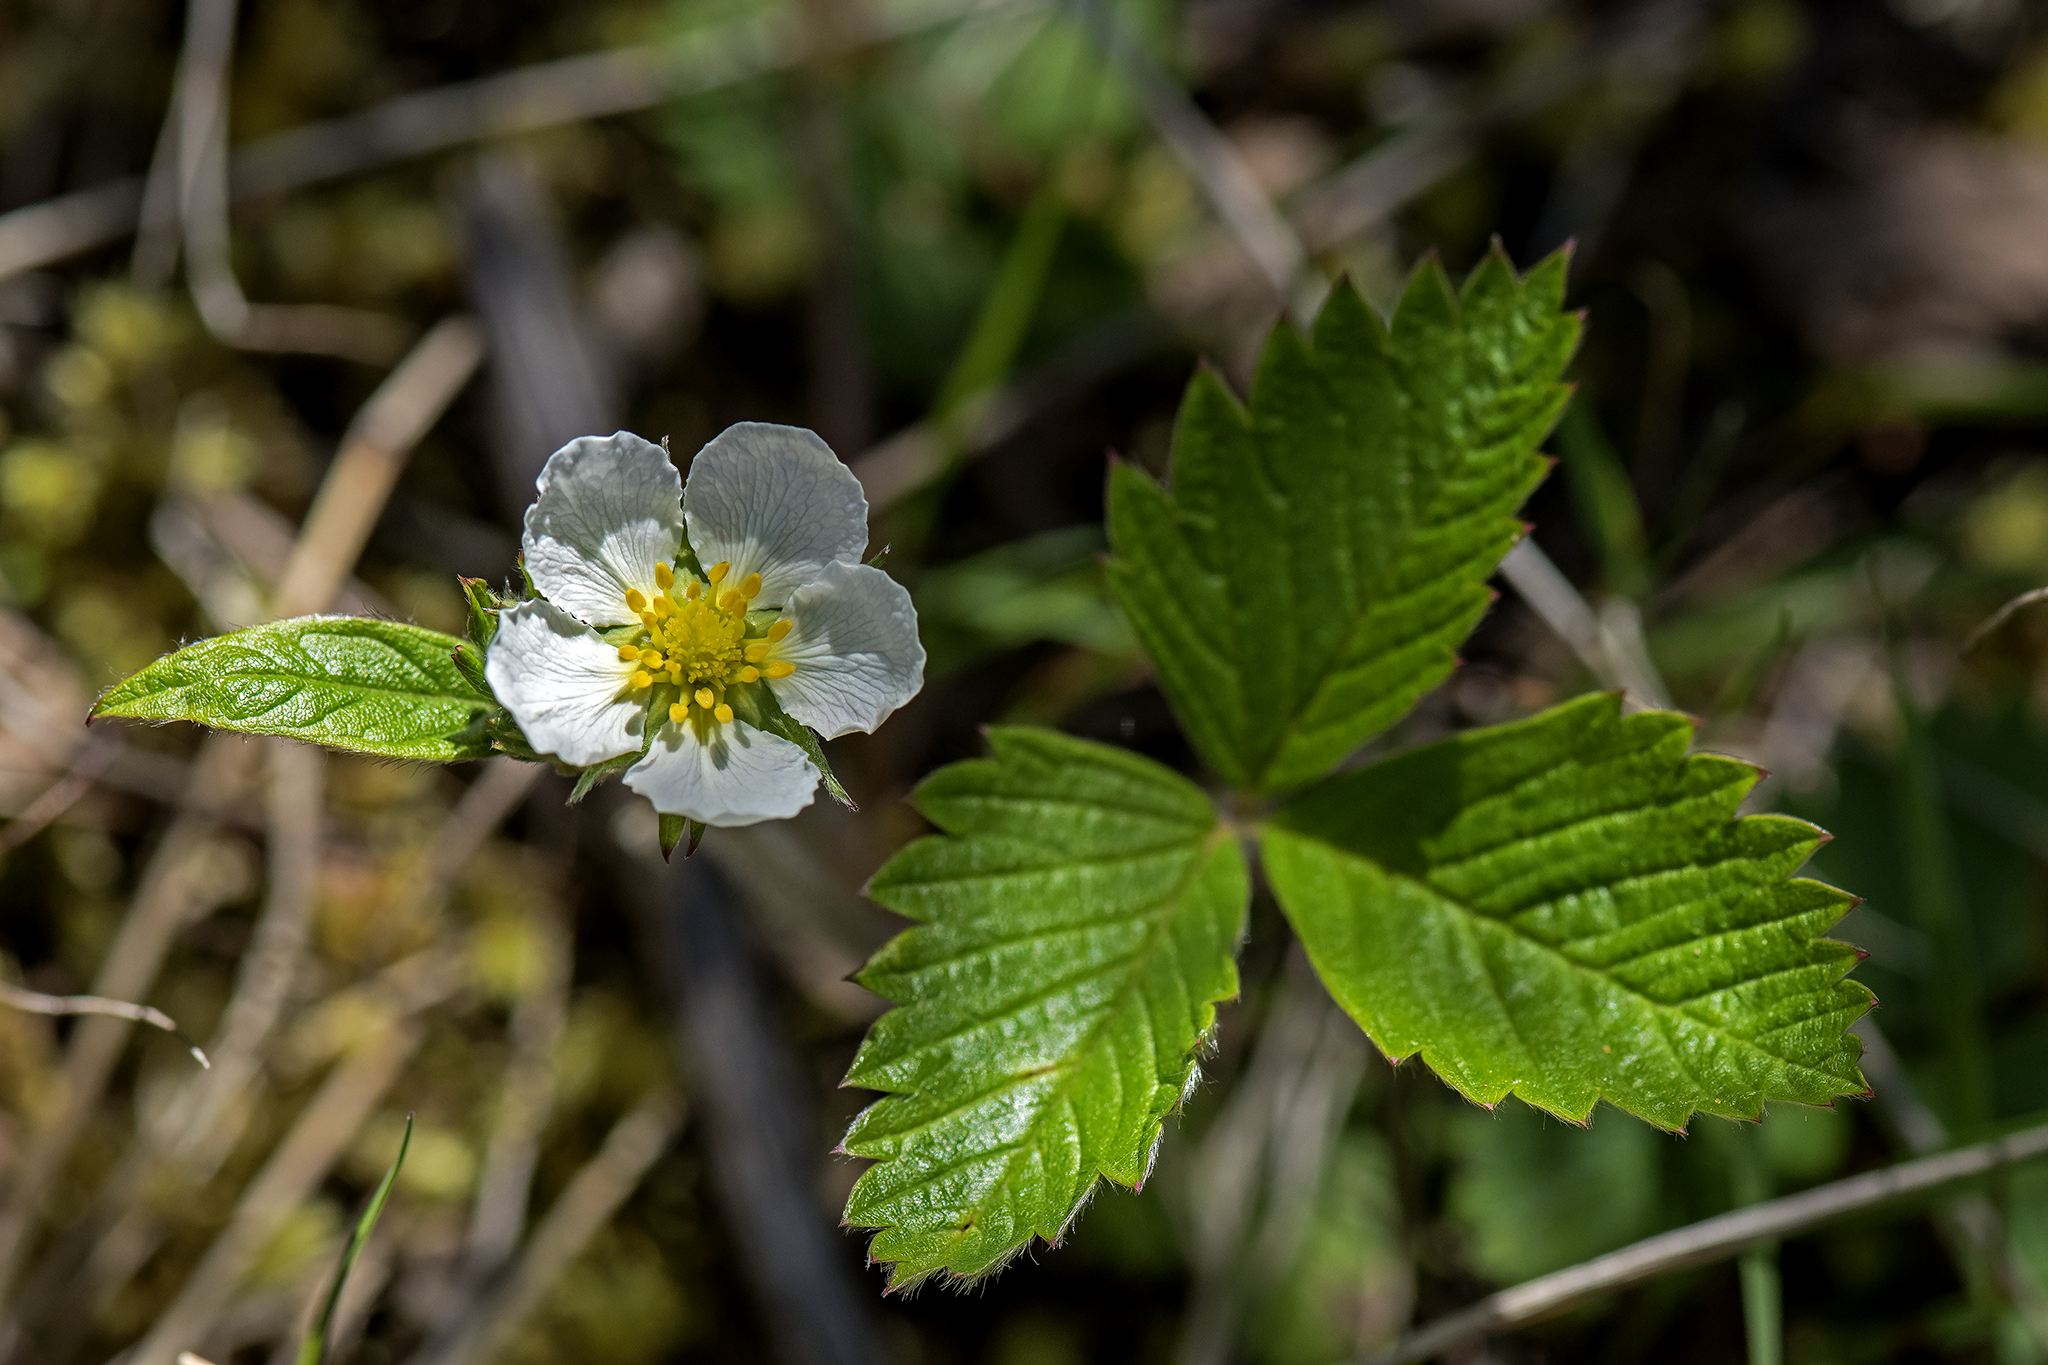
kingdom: Plantae
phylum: Tracheophyta
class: Magnoliopsida
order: Rosales
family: Rosaceae
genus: Fragaria
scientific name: Fragaria vesca
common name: Wild strawberry
